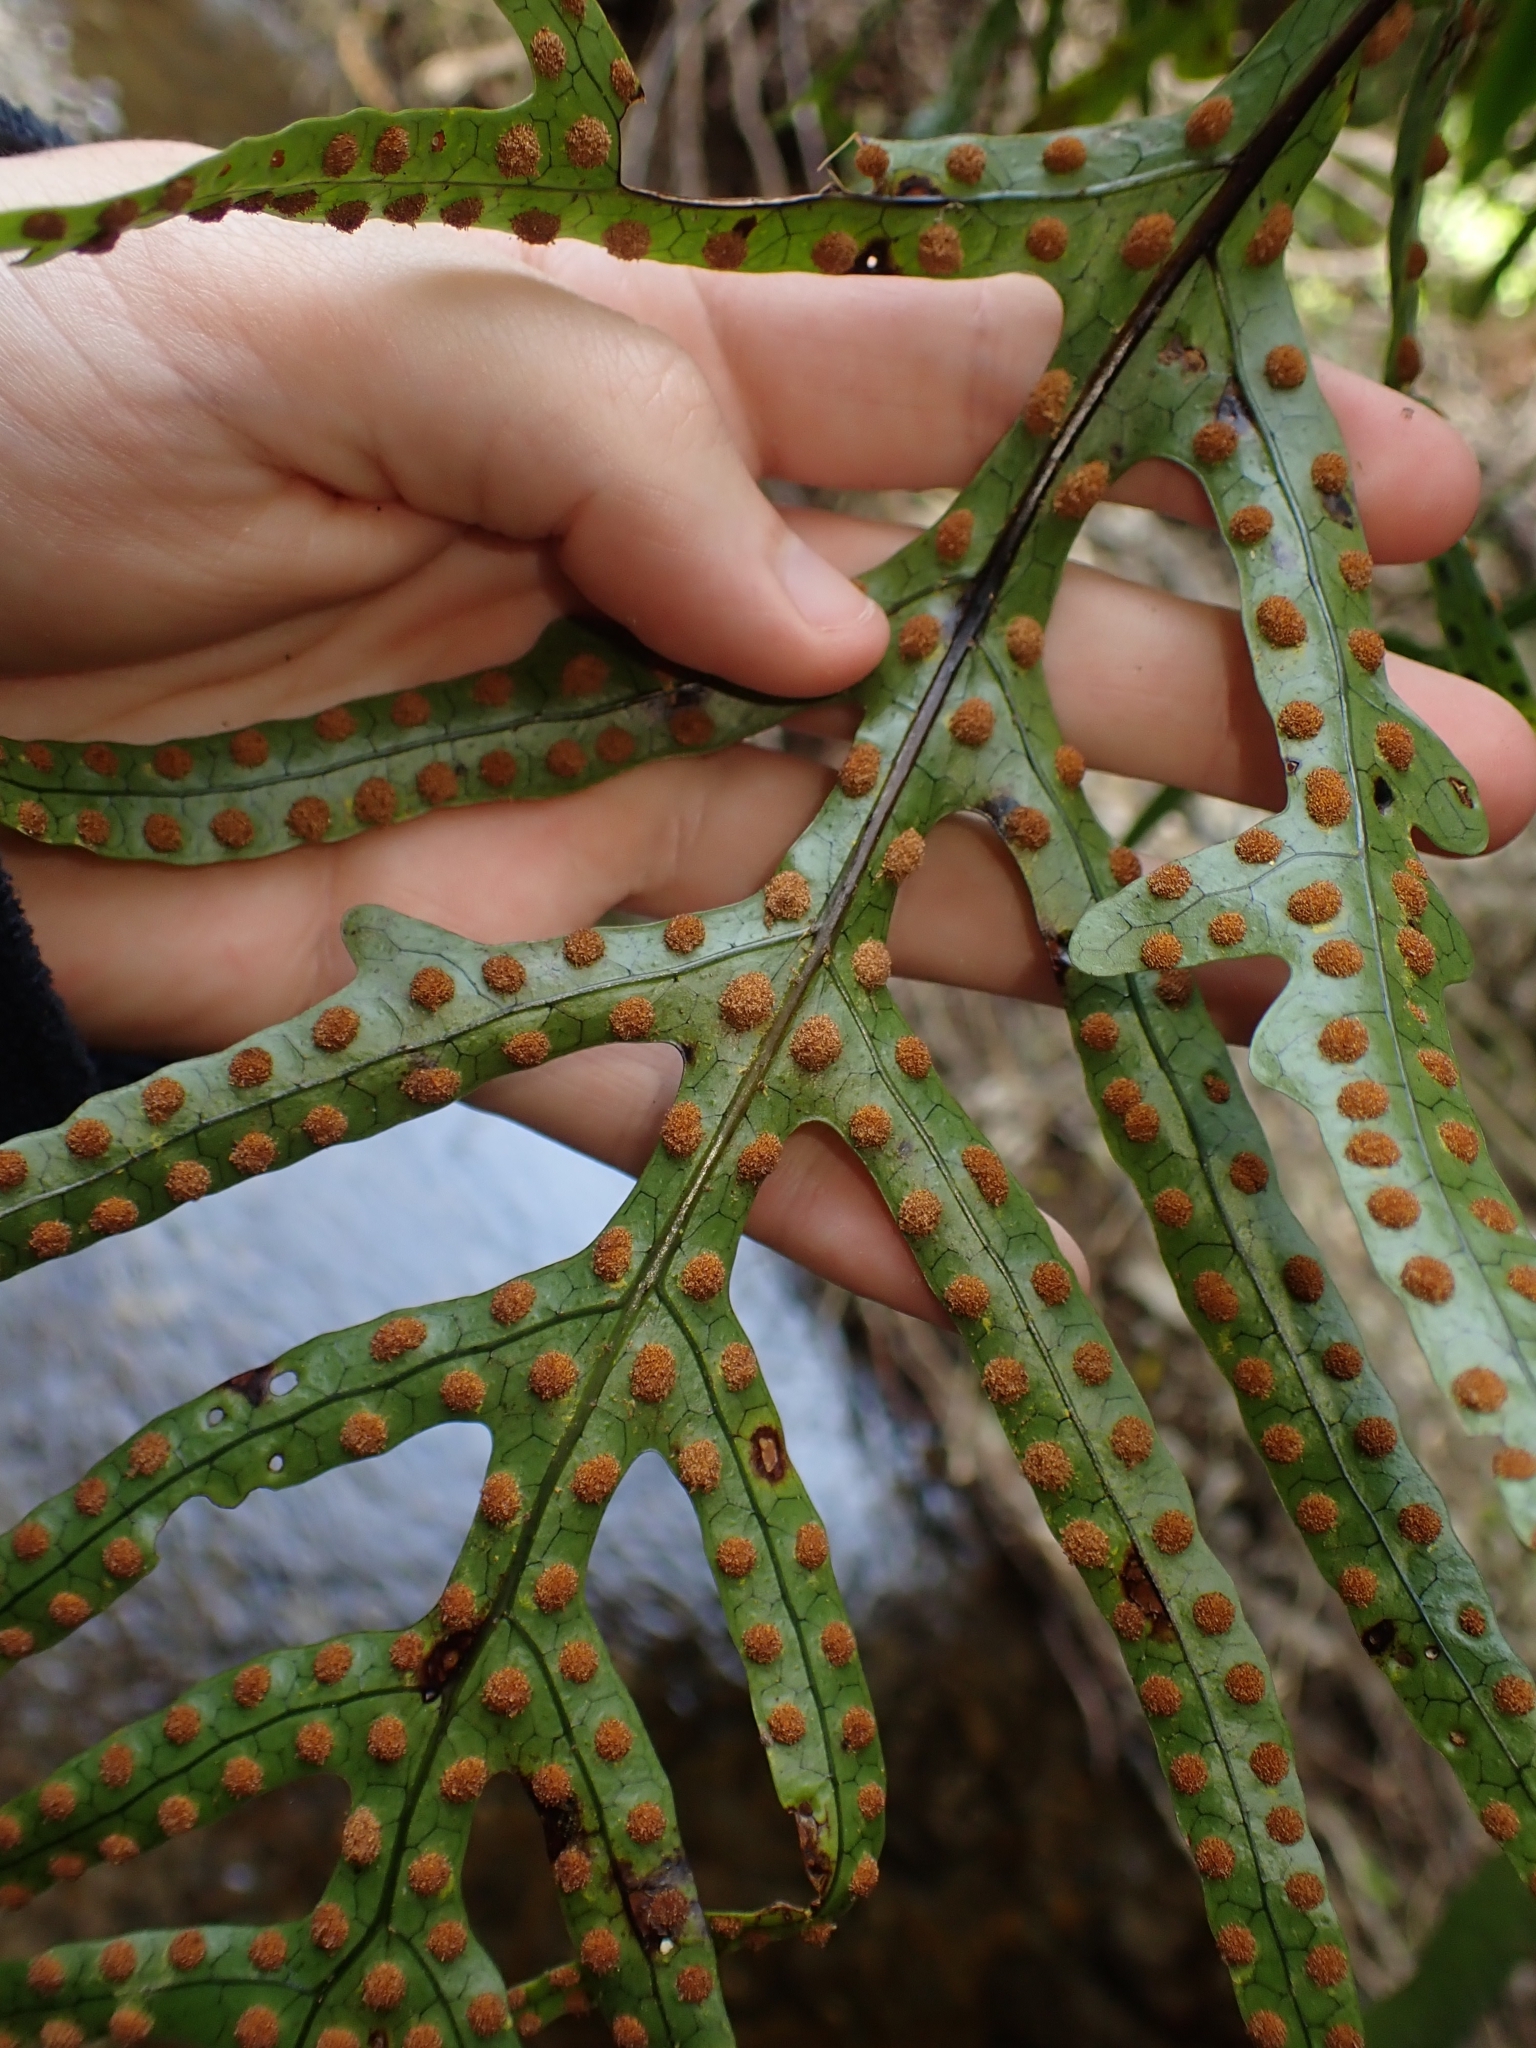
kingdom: Plantae
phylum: Tracheophyta
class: Polypodiopsida
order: Polypodiales
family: Polypodiaceae
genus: Lecanopteris
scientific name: Lecanopteris pustulata
